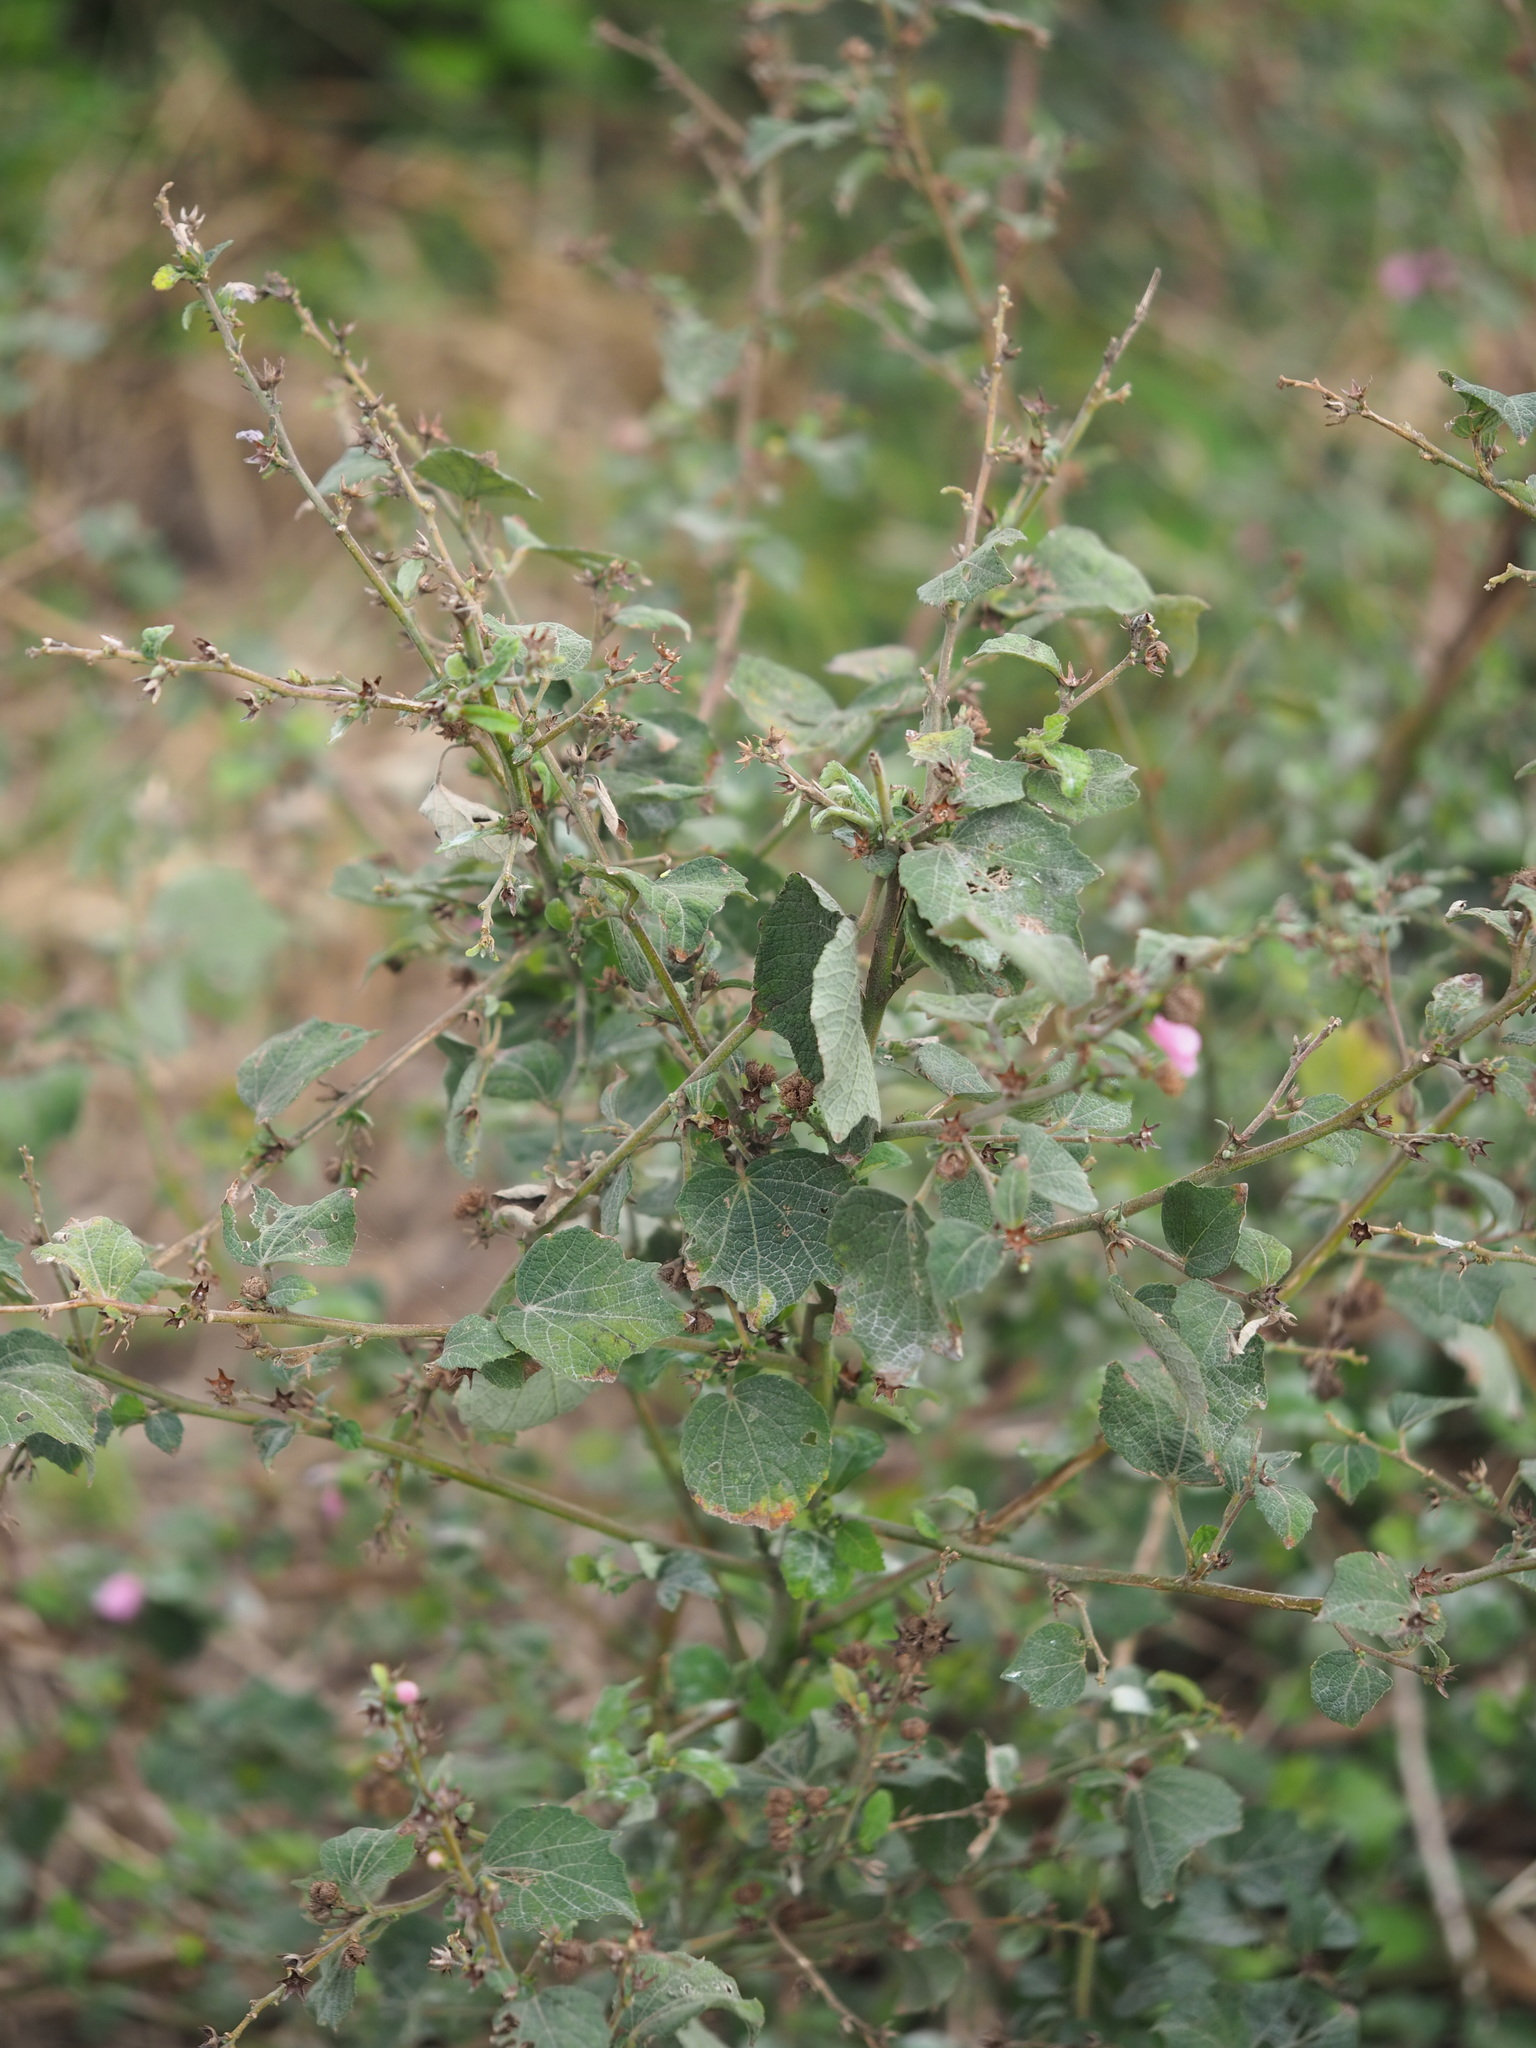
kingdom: Plantae
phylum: Tracheophyta
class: Magnoliopsida
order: Malvales
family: Malvaceae
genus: Urena
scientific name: Urena lobata
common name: Caesarweed
